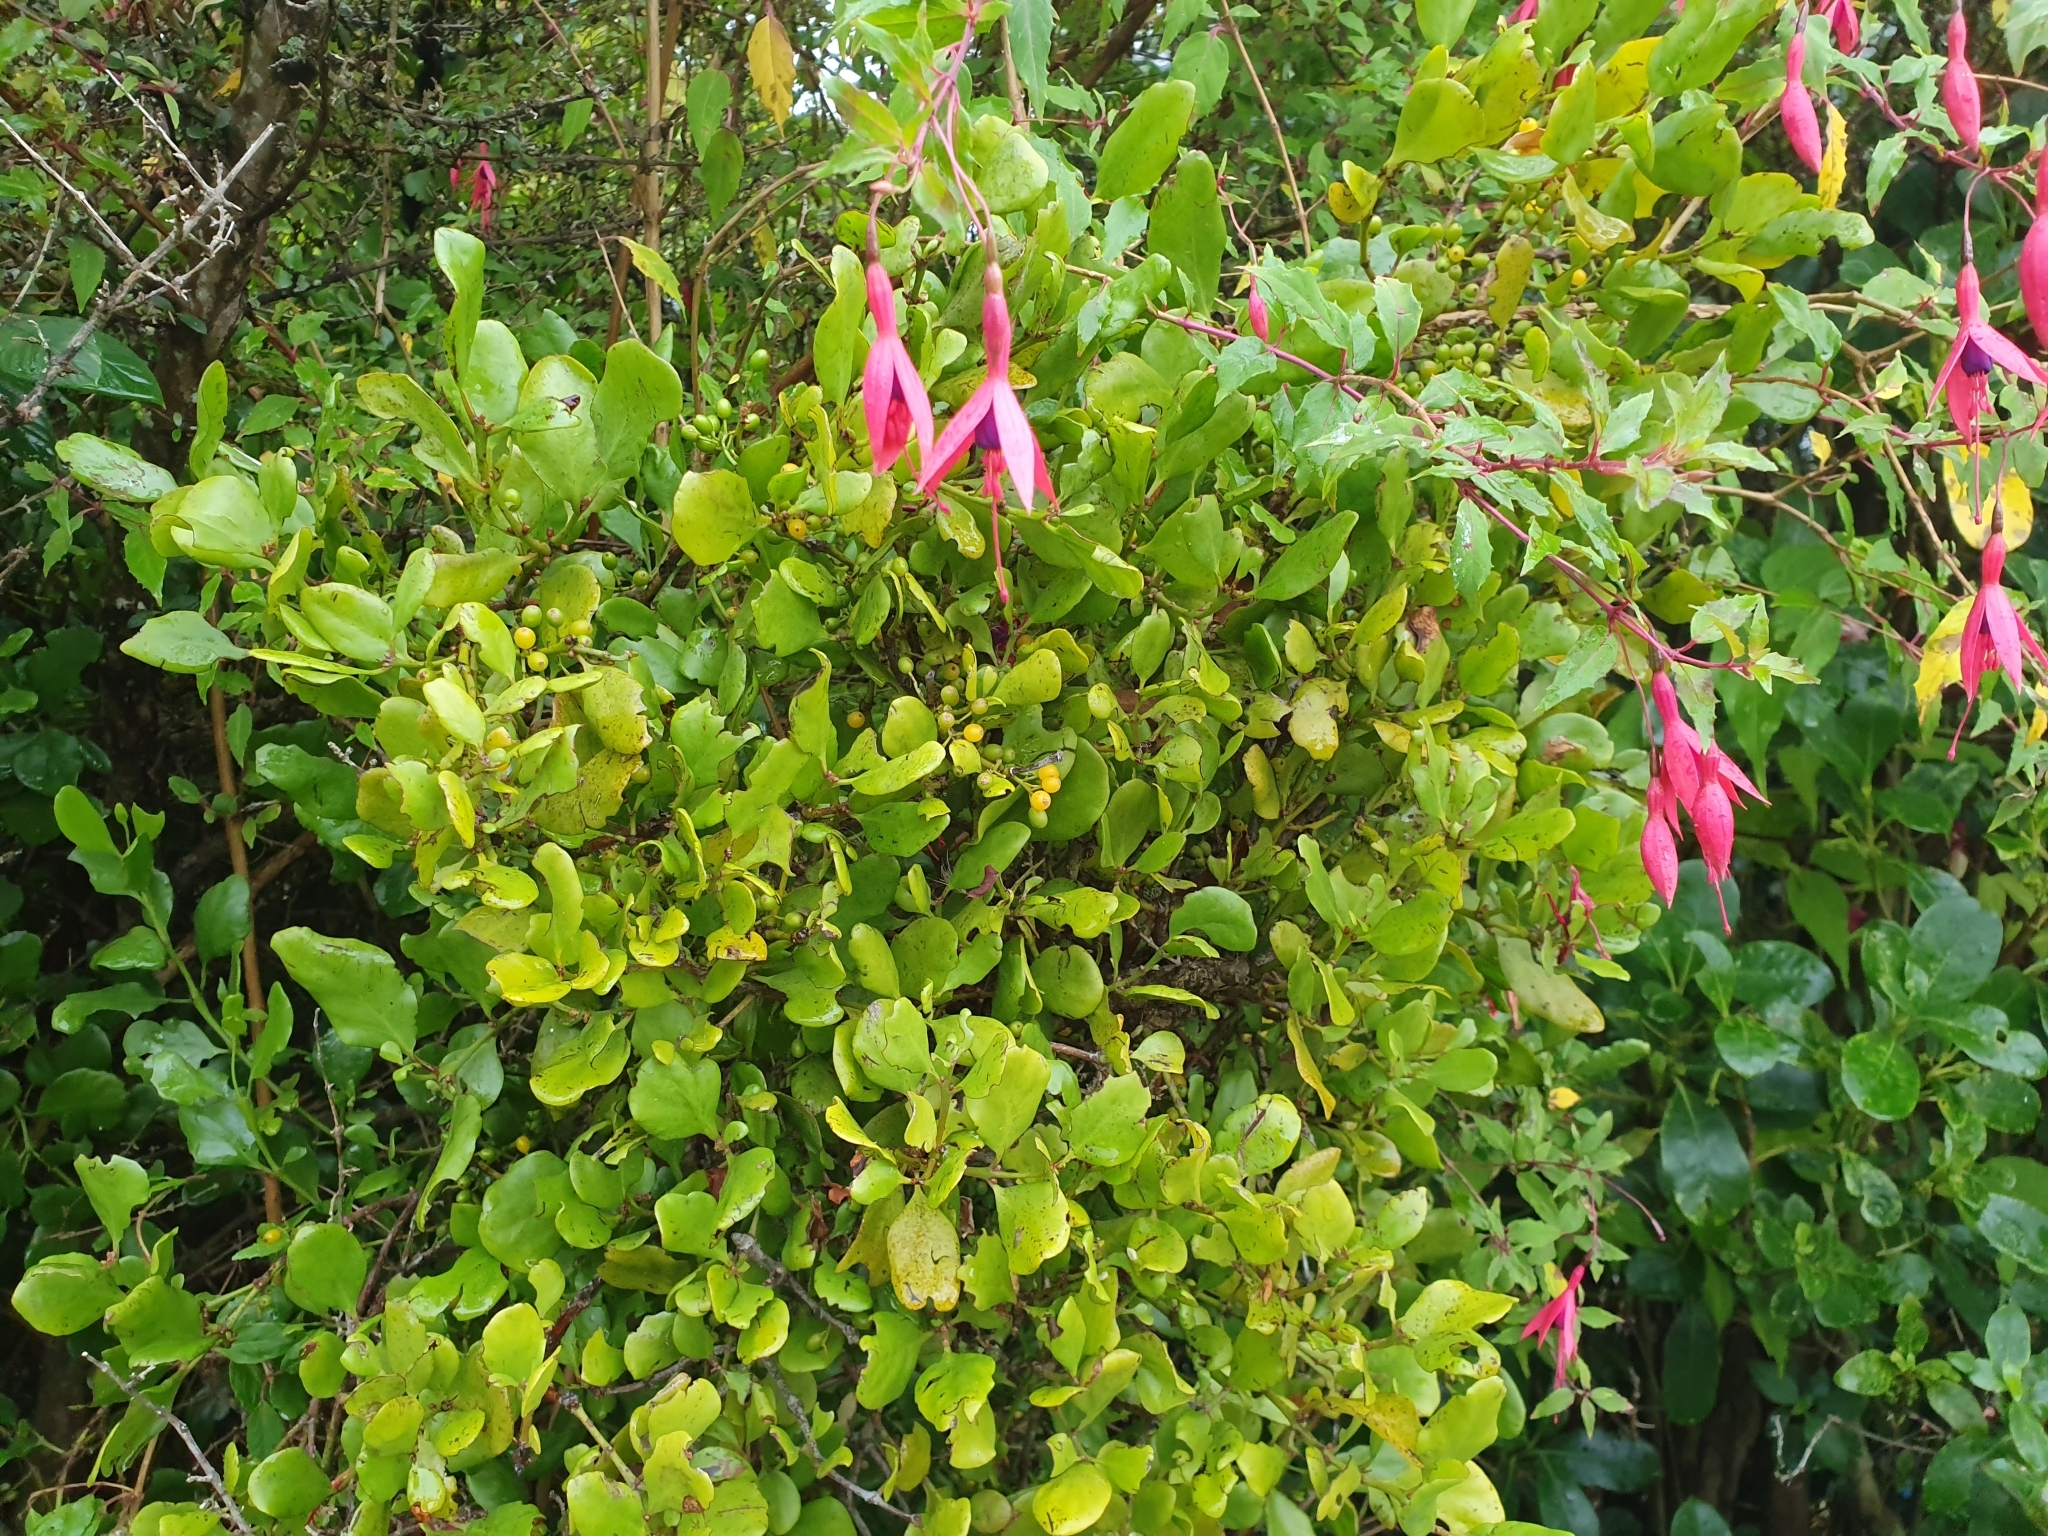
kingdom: Plantae
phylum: Tracheophyta
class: Magnoliopsida
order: Santalales
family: Loranthaceae
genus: Ileostylus
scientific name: Ileostylus micranthus
